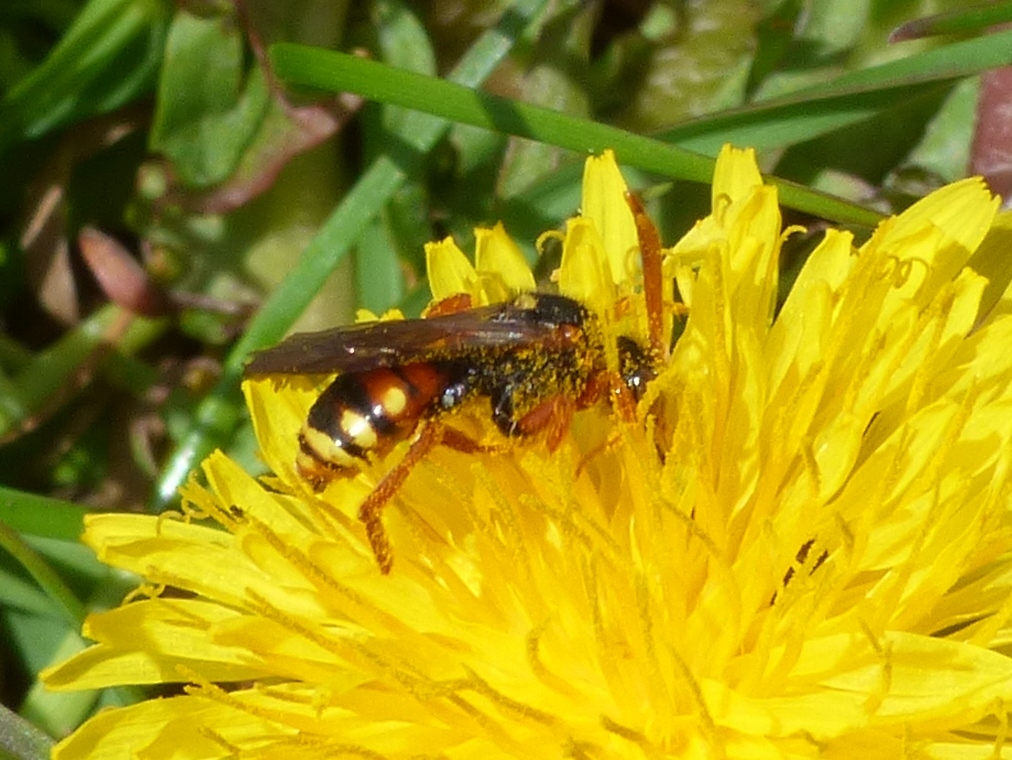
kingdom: Animalia
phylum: Arthropoda
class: Insecta
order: Hymenoptera
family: Apidae
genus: Nomada
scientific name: Nomada bifasciata
